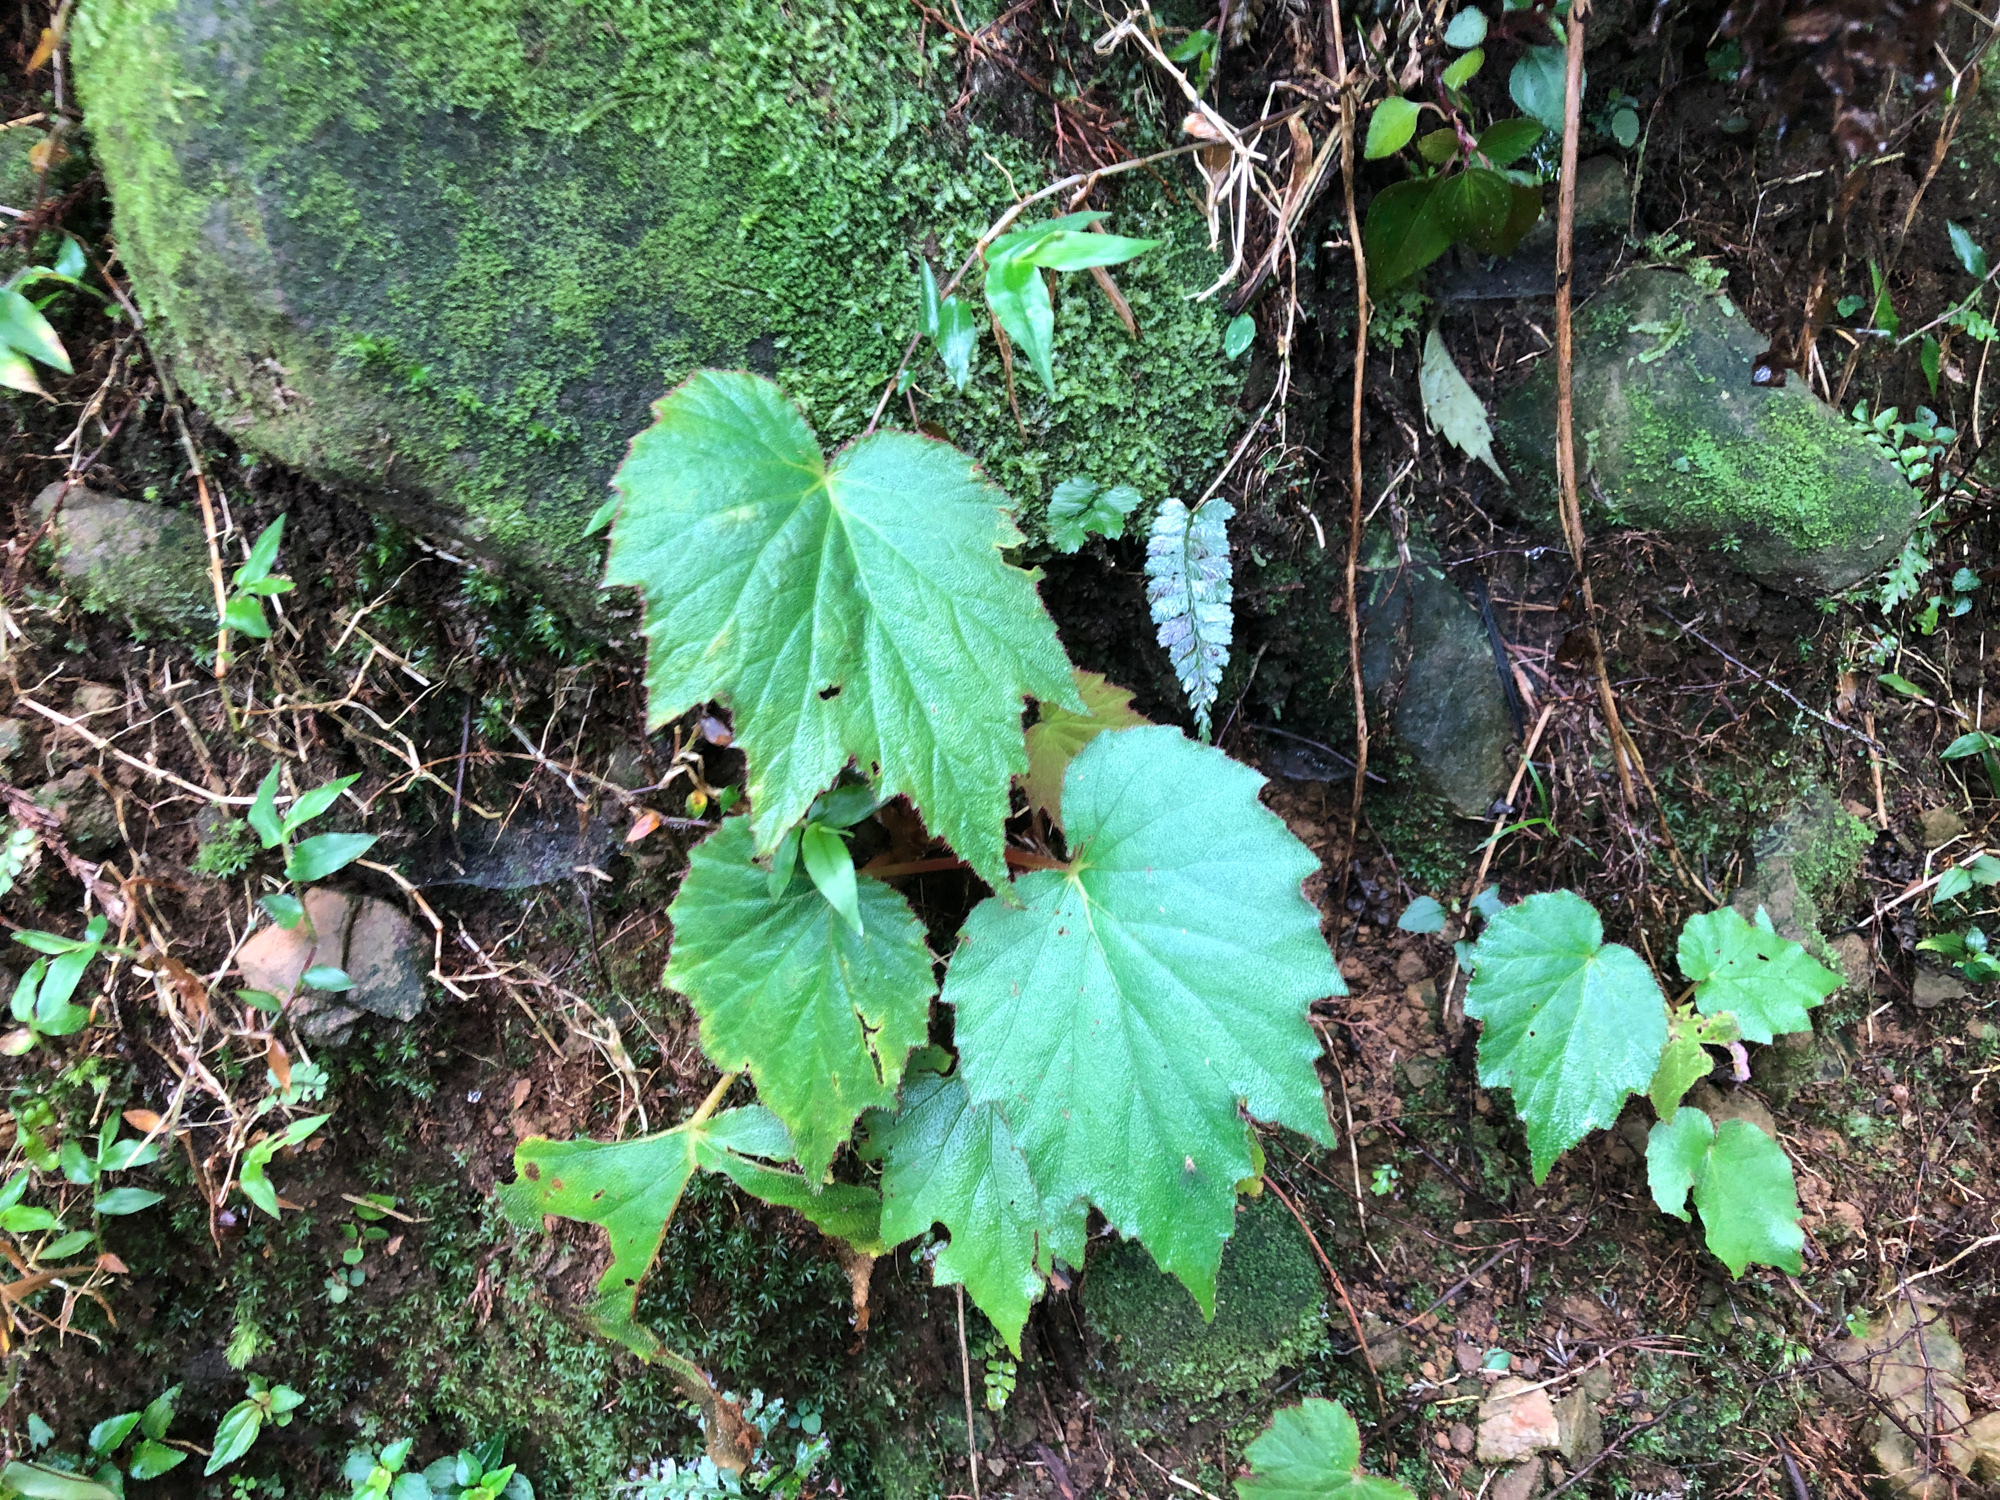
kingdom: Plantae
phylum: Tracheophyta
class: Magnoliopsida
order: Cucurbitales
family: Begoniaceae
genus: Begonia
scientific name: Begonia palmata
